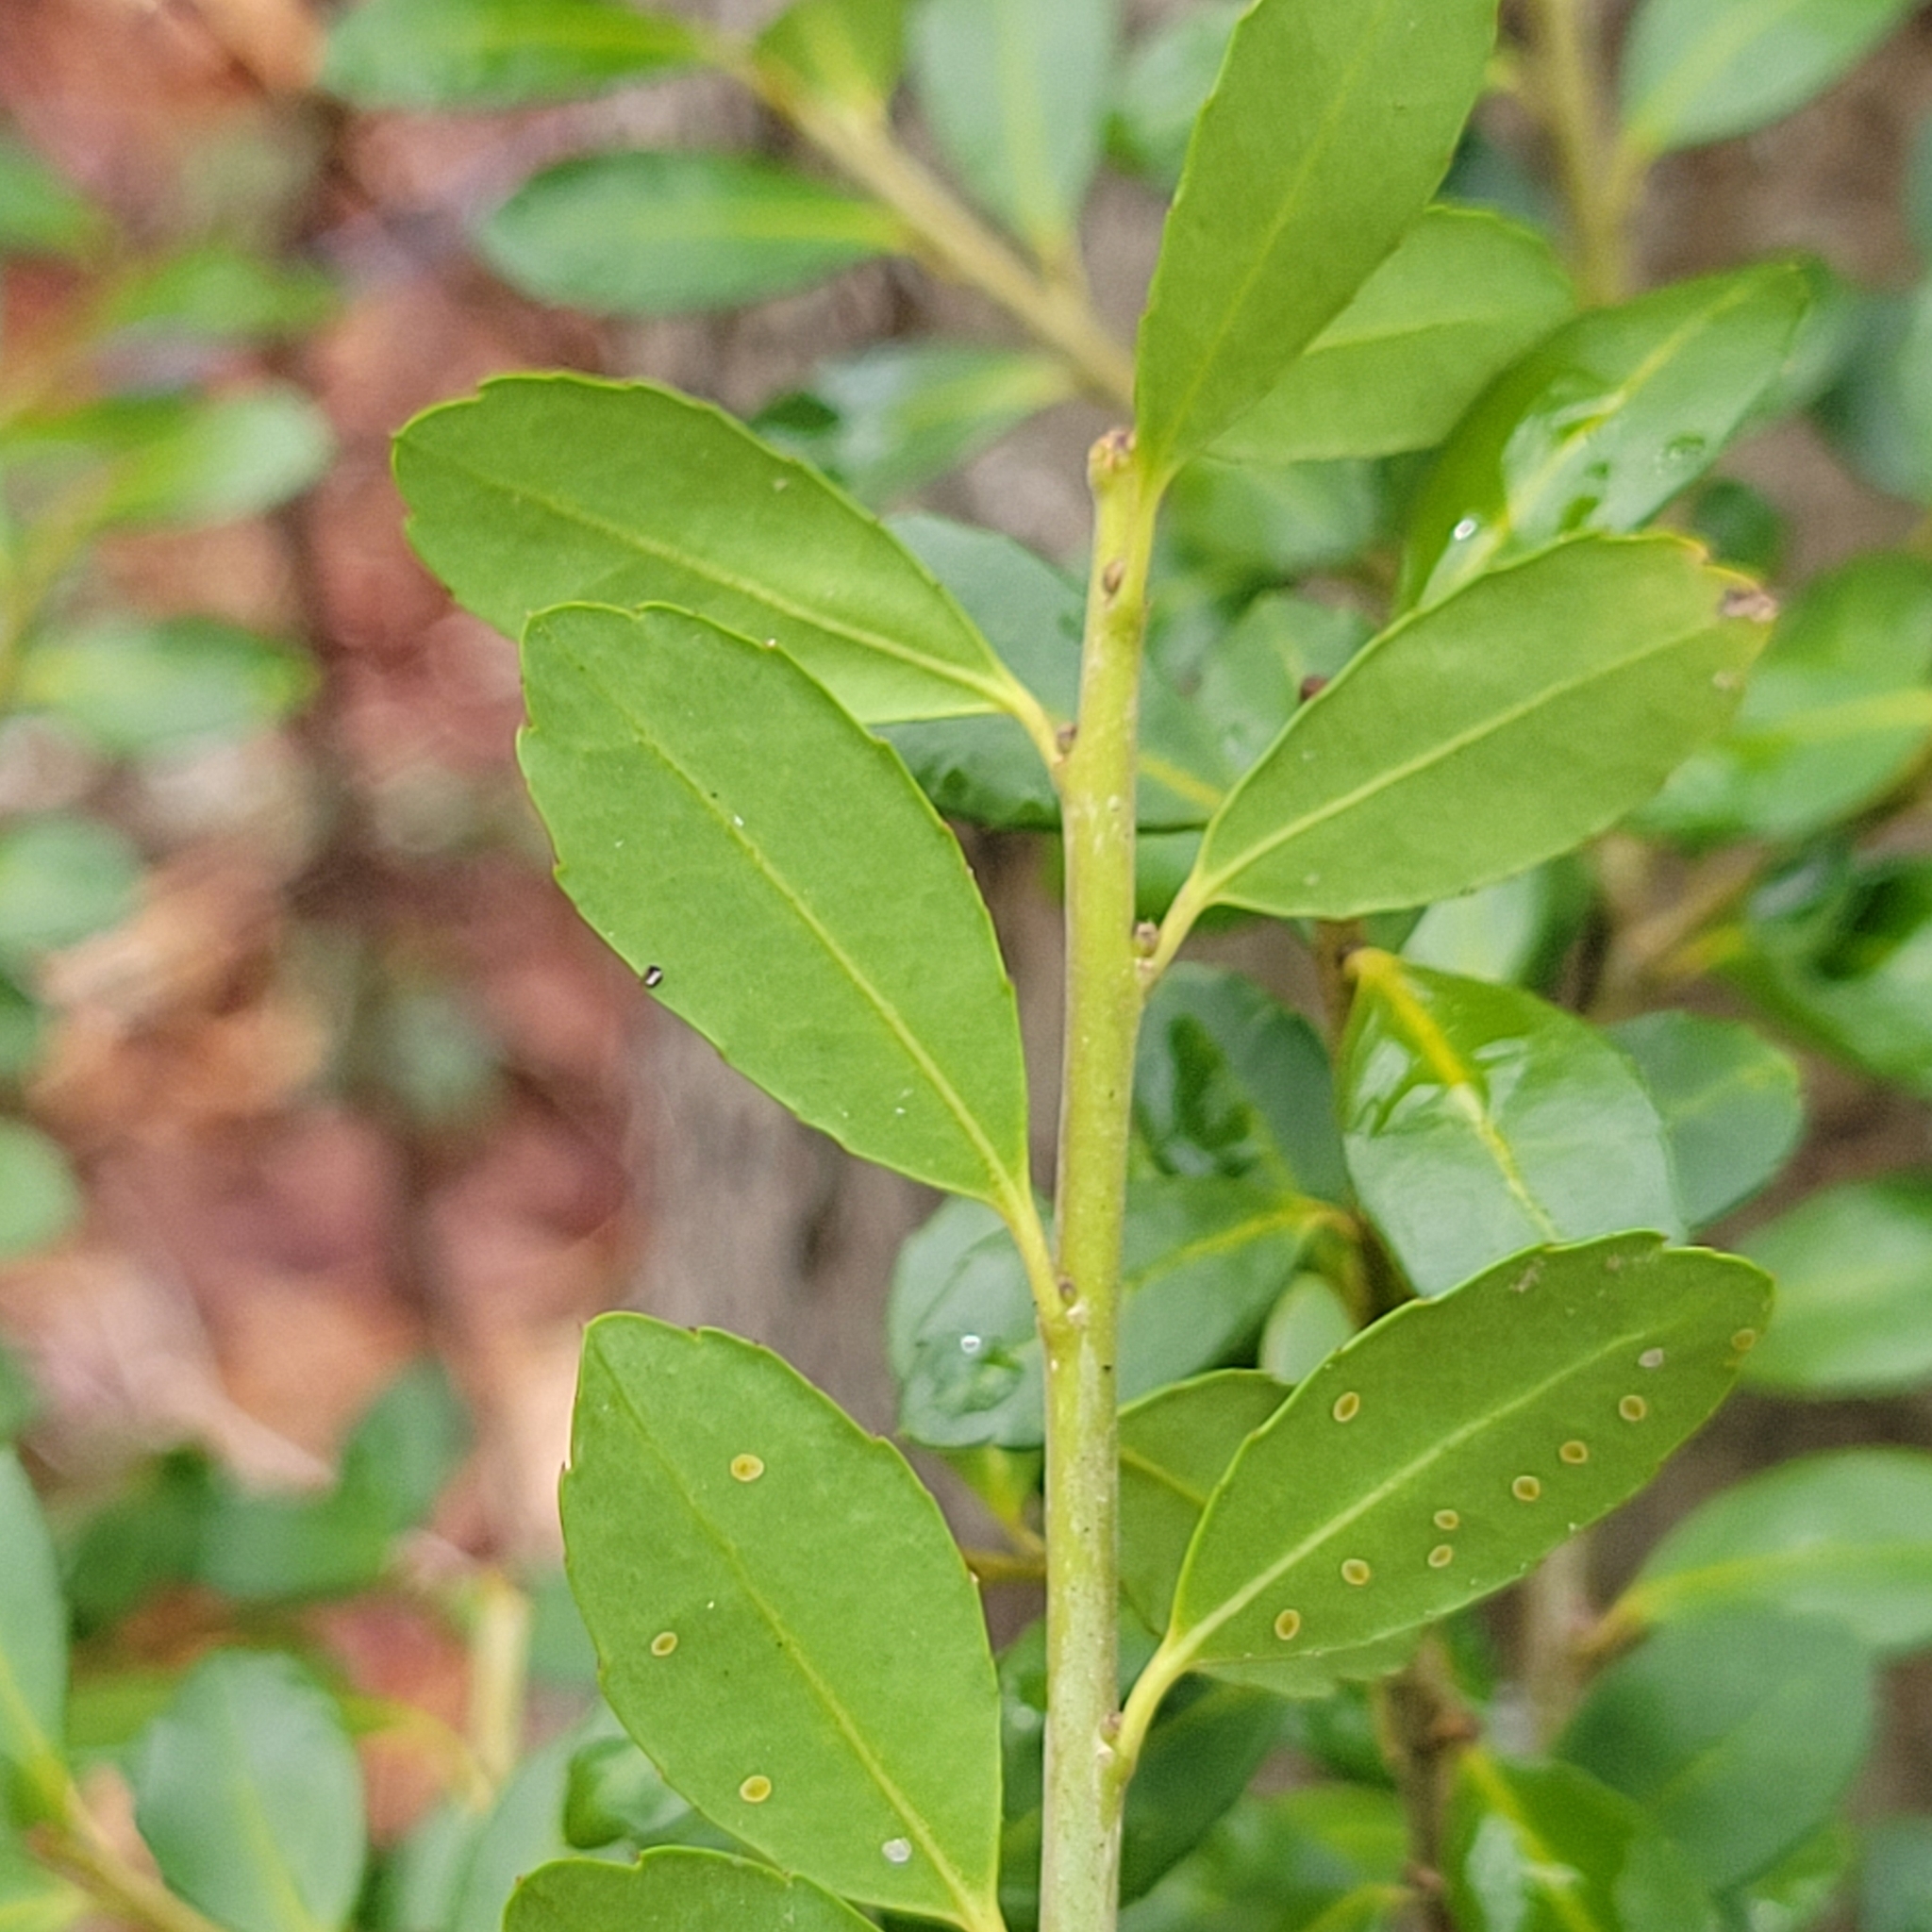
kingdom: Plantae
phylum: Tracheophyta
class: Magnoliopsida
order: Aquifoliales
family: Aquifoliaceae
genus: Ilex
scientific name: Ilex crenata
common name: Japanese holly
